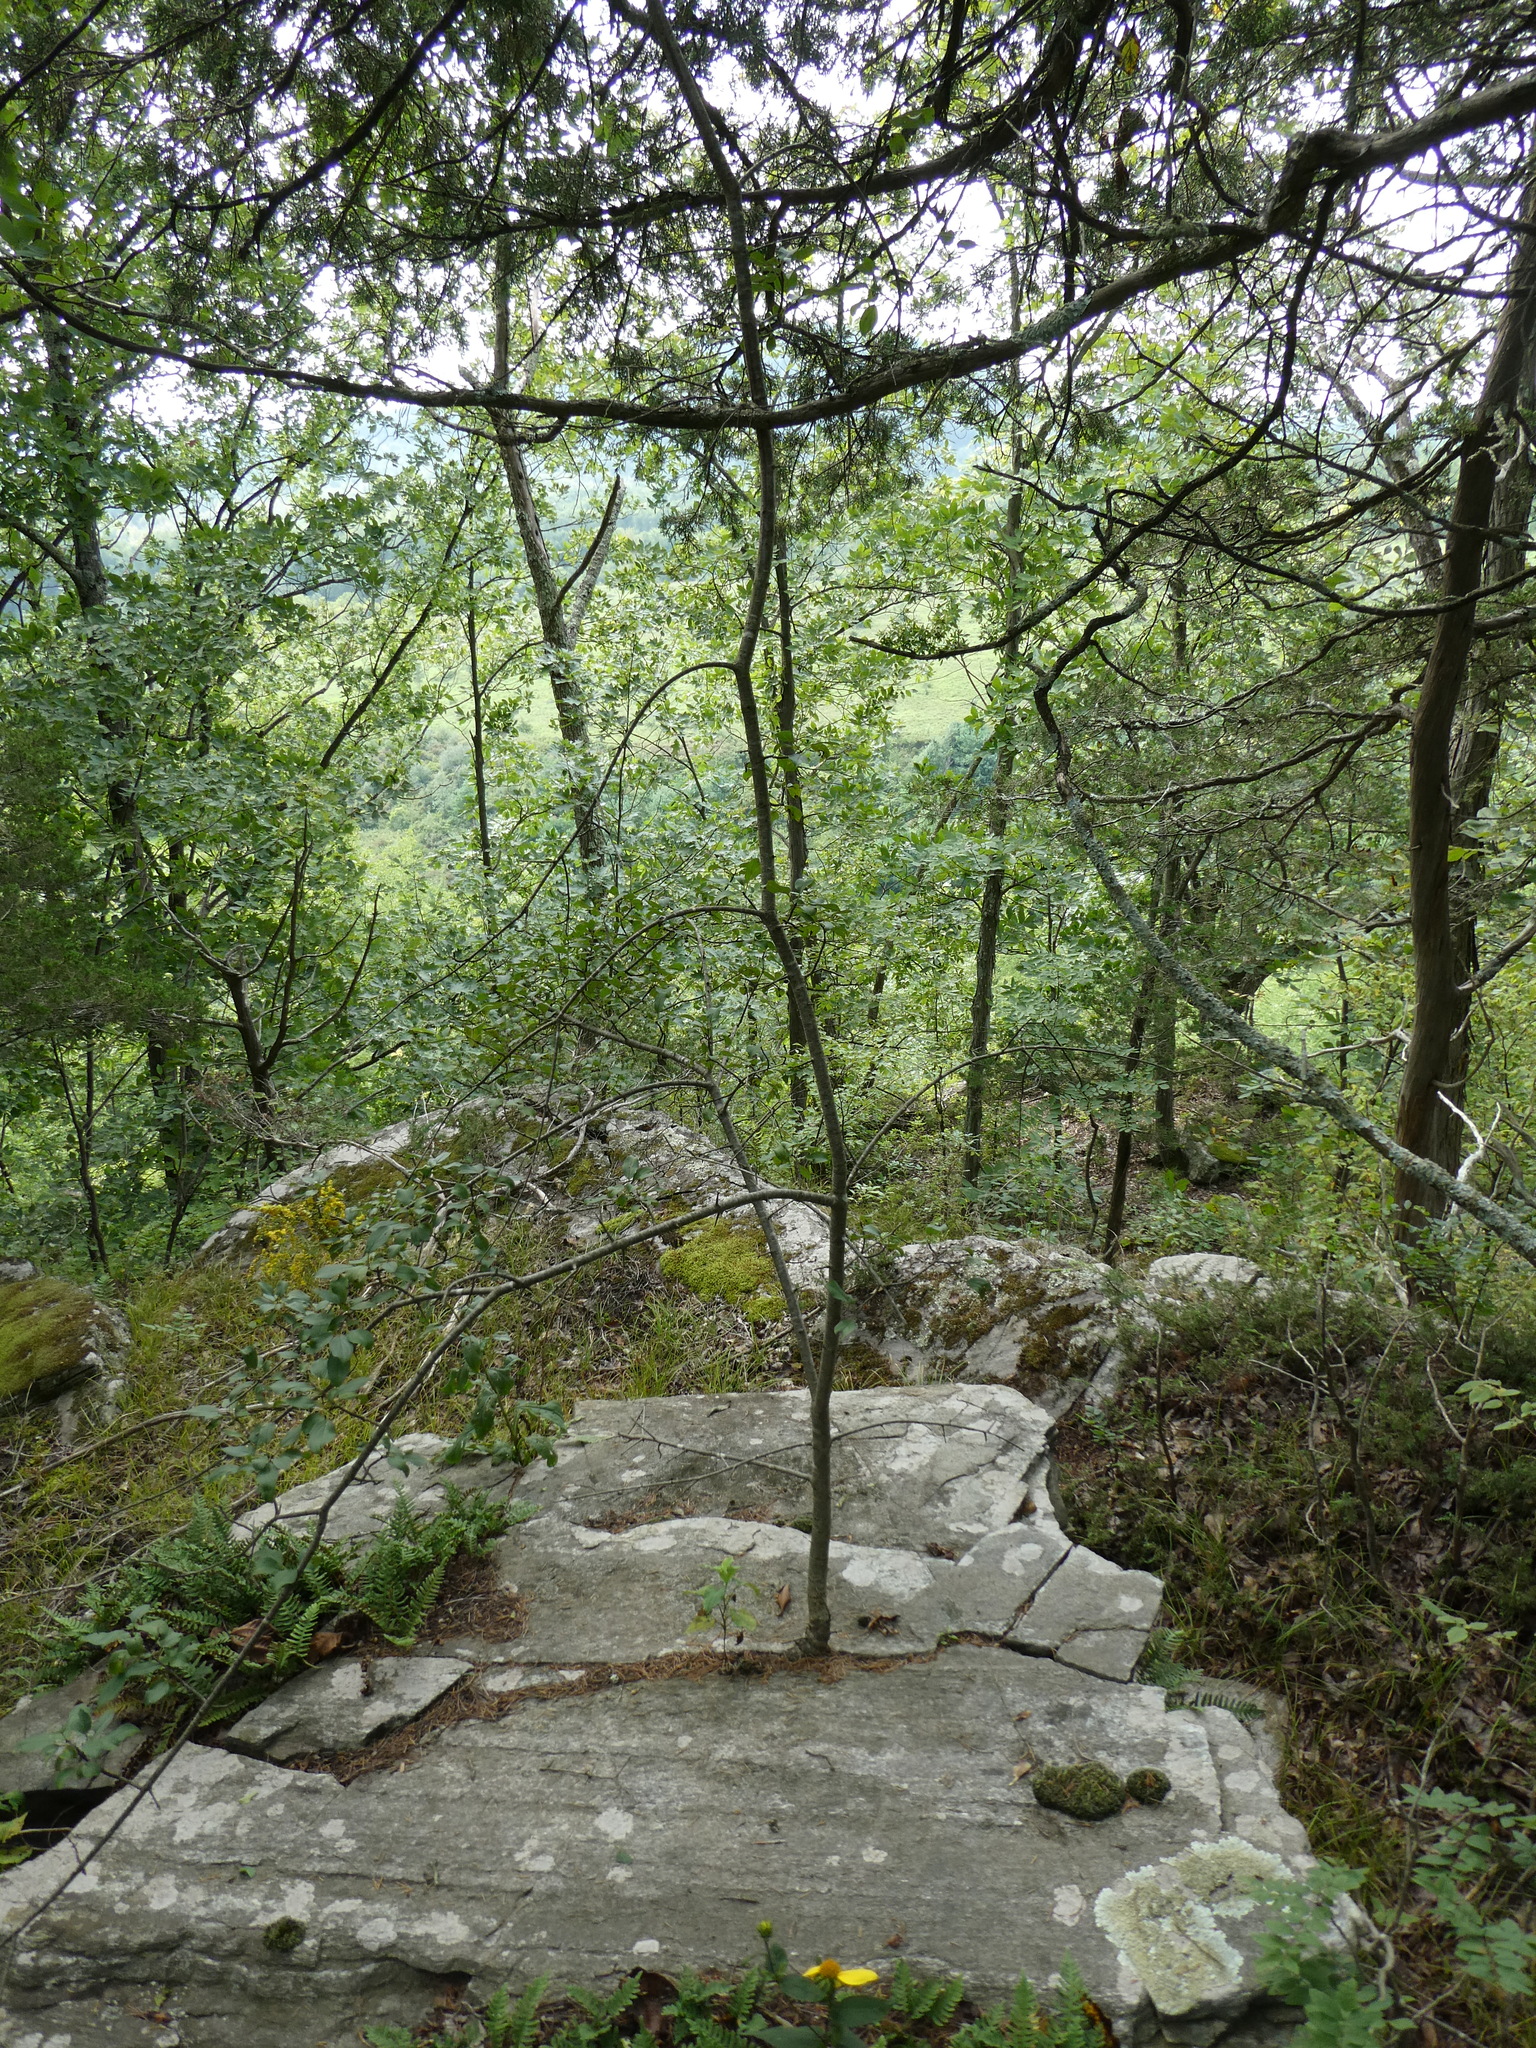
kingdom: Plantae
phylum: Tracheophyta
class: Magnoliopsida
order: Rosales
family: Rhamnaceae
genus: Rhamnus
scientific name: Rhamnus cathartica
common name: Common buckthorn
